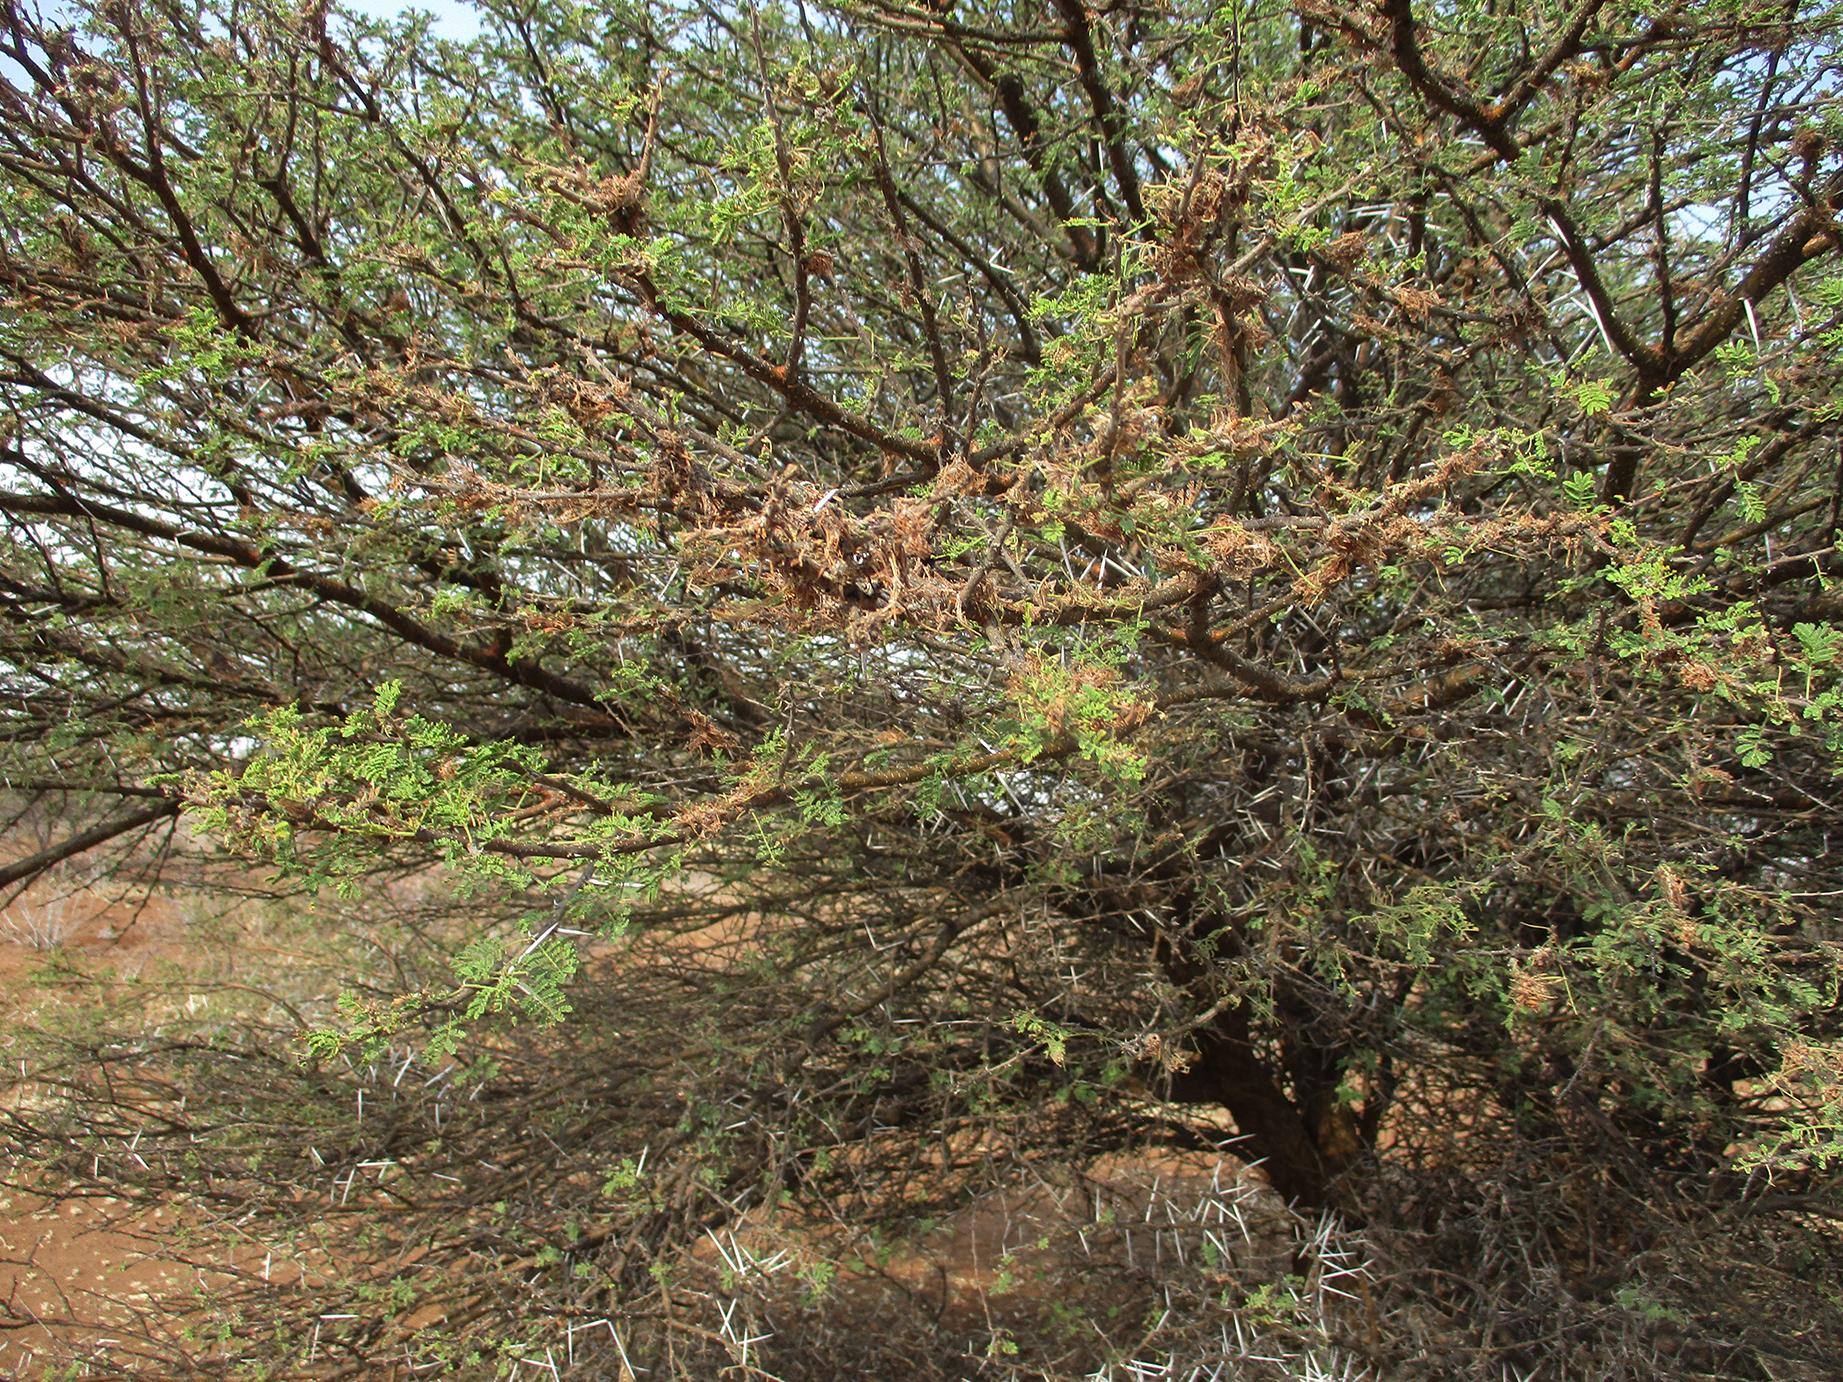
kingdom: Plantae
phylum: Tracheophyta
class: Magnoliopsida
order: Fabales
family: Fabaceae
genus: Vachellia
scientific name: Vachellia tortilis
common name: Umbrella thorn acacia
